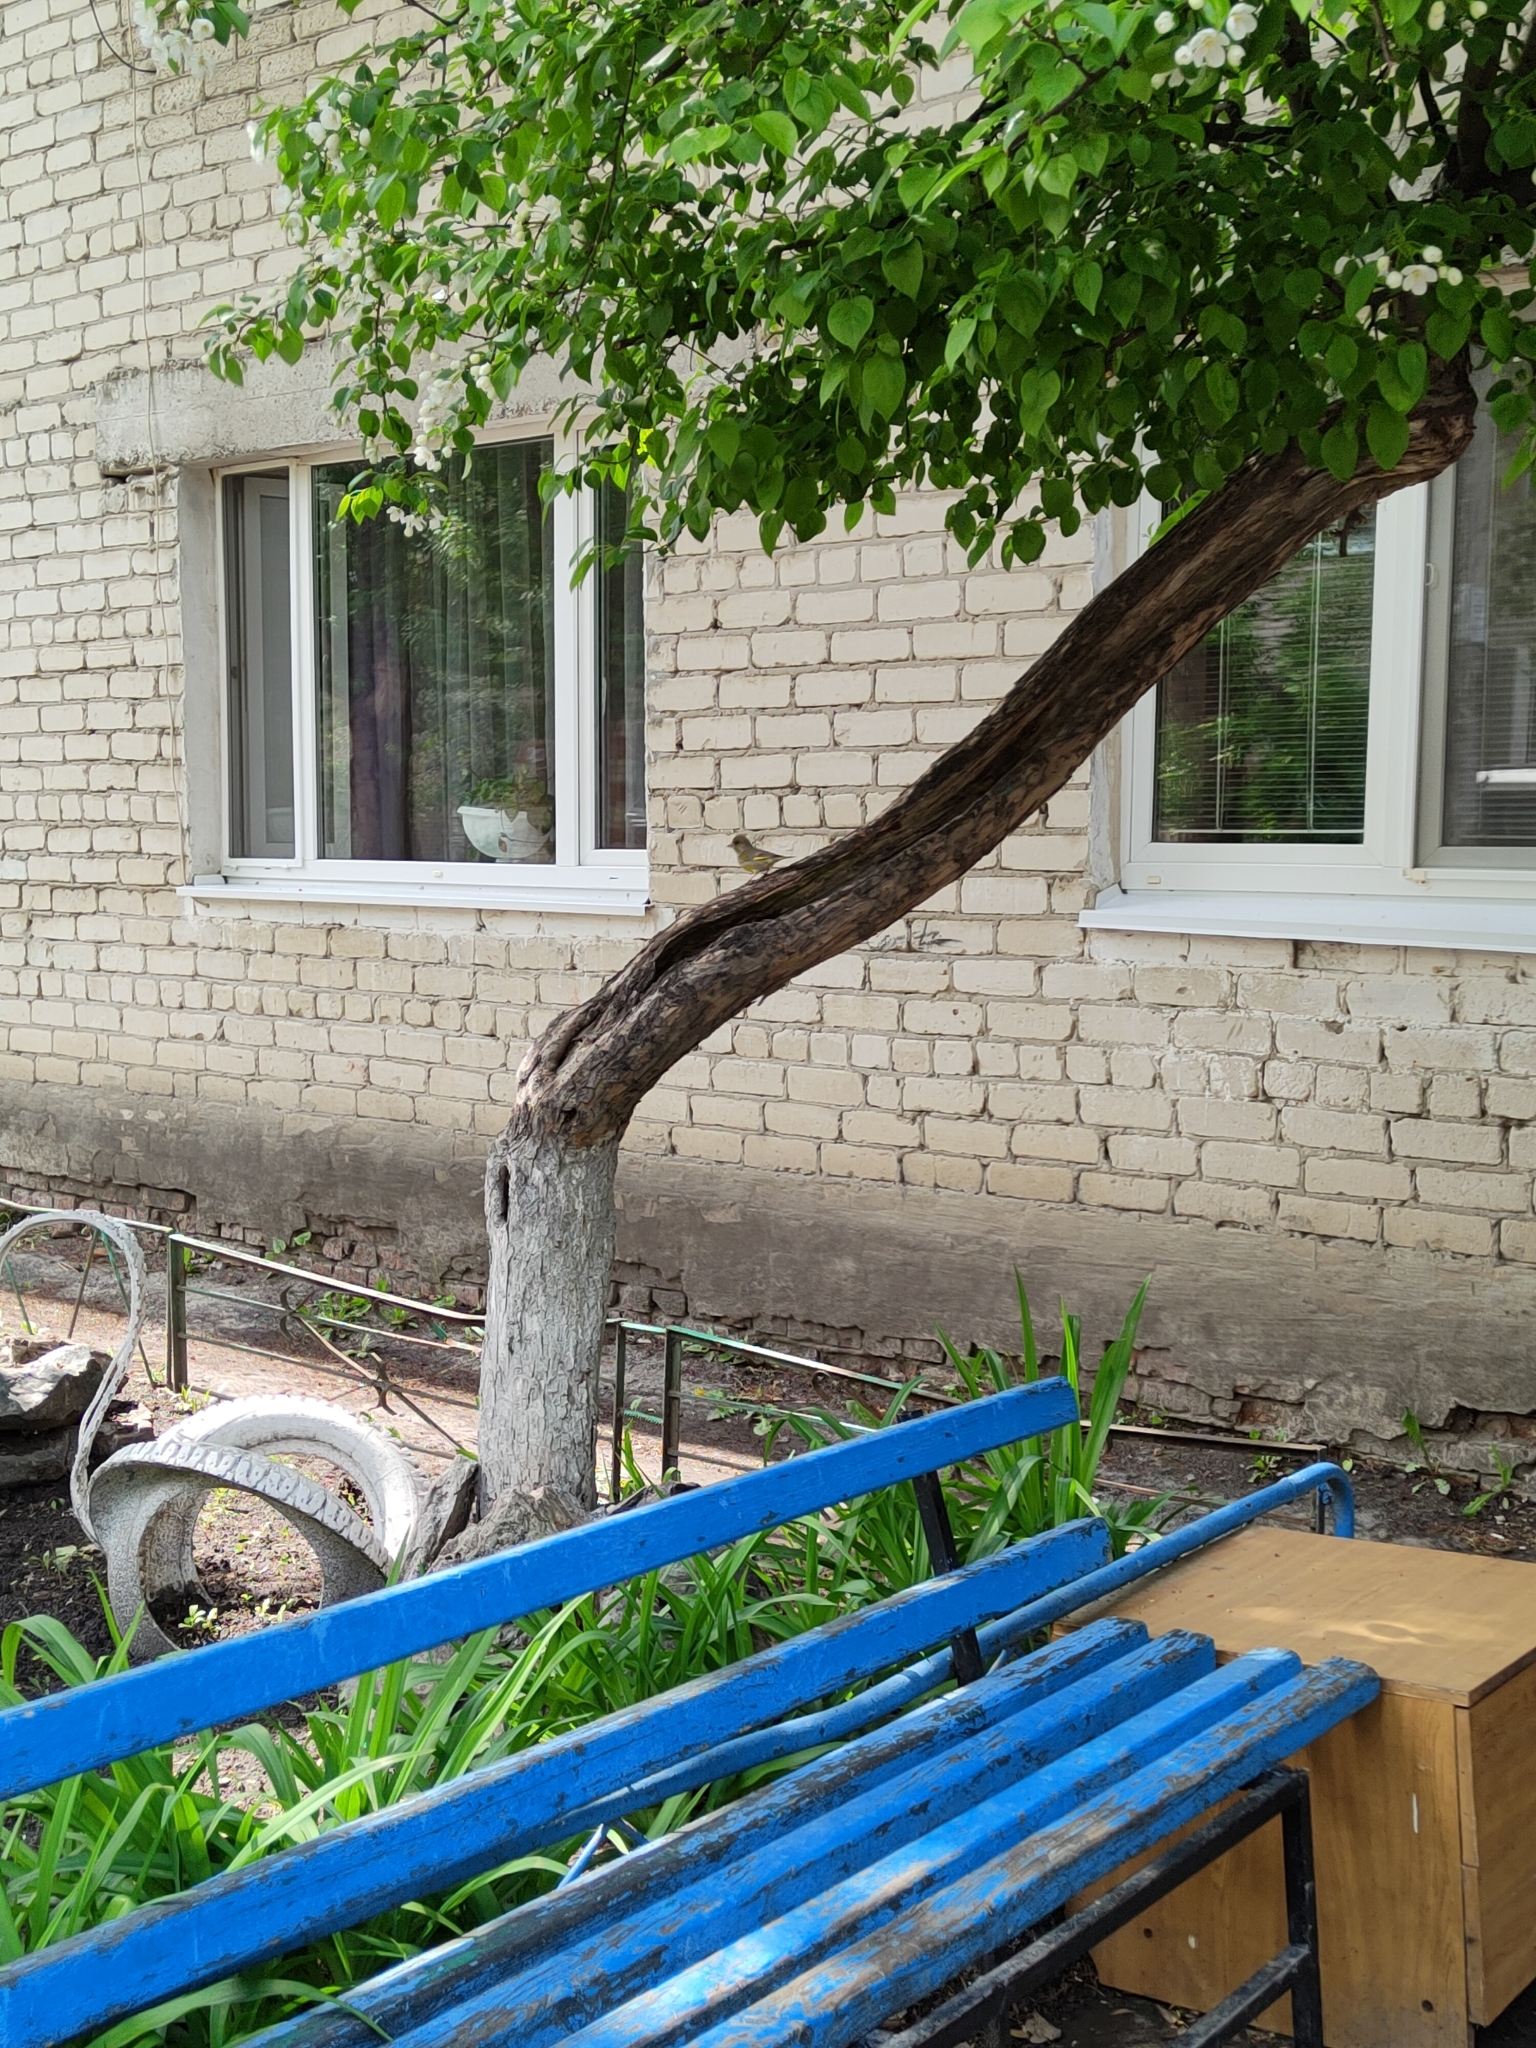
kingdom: Plantae
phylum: Tracheophyta
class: Liliopsida
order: Poales
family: Poaceae
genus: Chloris
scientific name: Chloris chloris
